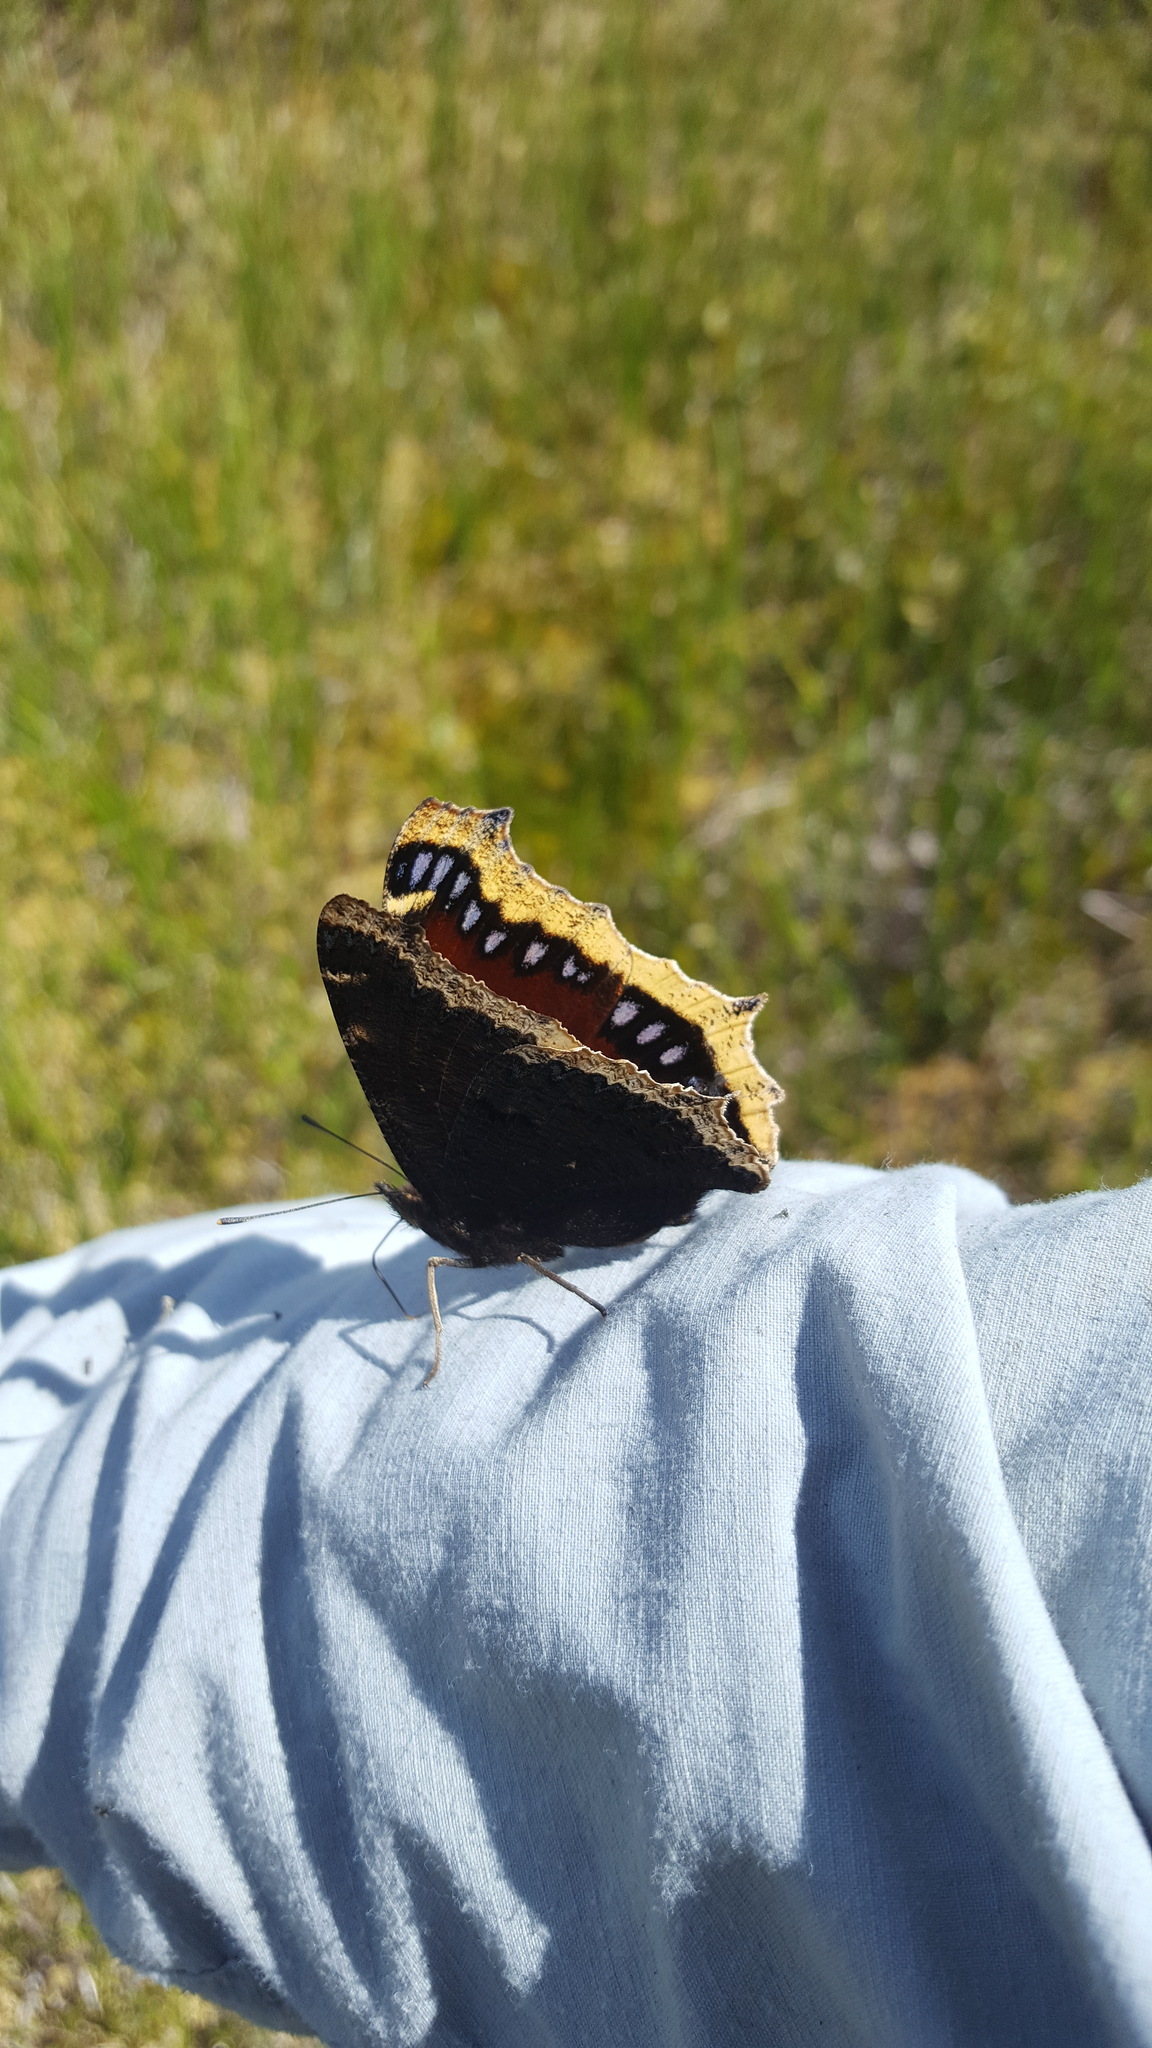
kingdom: Animalia
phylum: Arthropoda
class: Insecta
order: Lepidoptera
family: Nymphalidae
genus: Nymphalis
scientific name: Nymphalis antiopa
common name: Camberwell beauty
